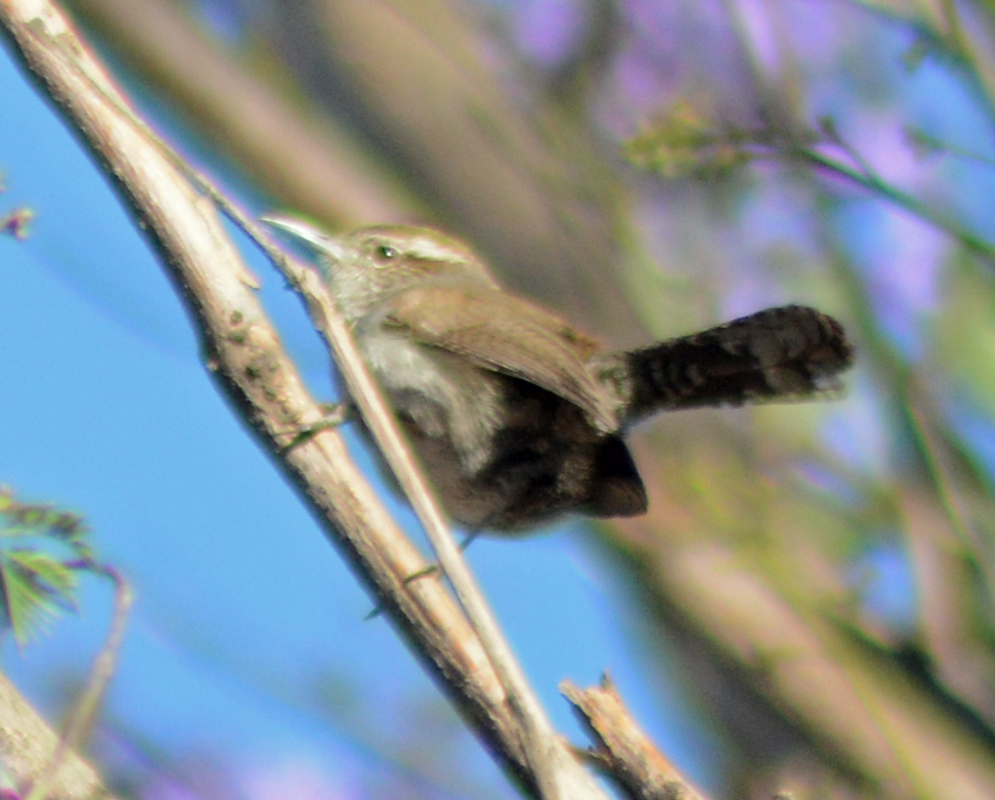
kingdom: Animalia
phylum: Chordata
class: Aves
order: Passeriformes
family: Troglodytidae
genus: Thryomanes
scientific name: Thryomanes bewickii
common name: Bewick's wren
